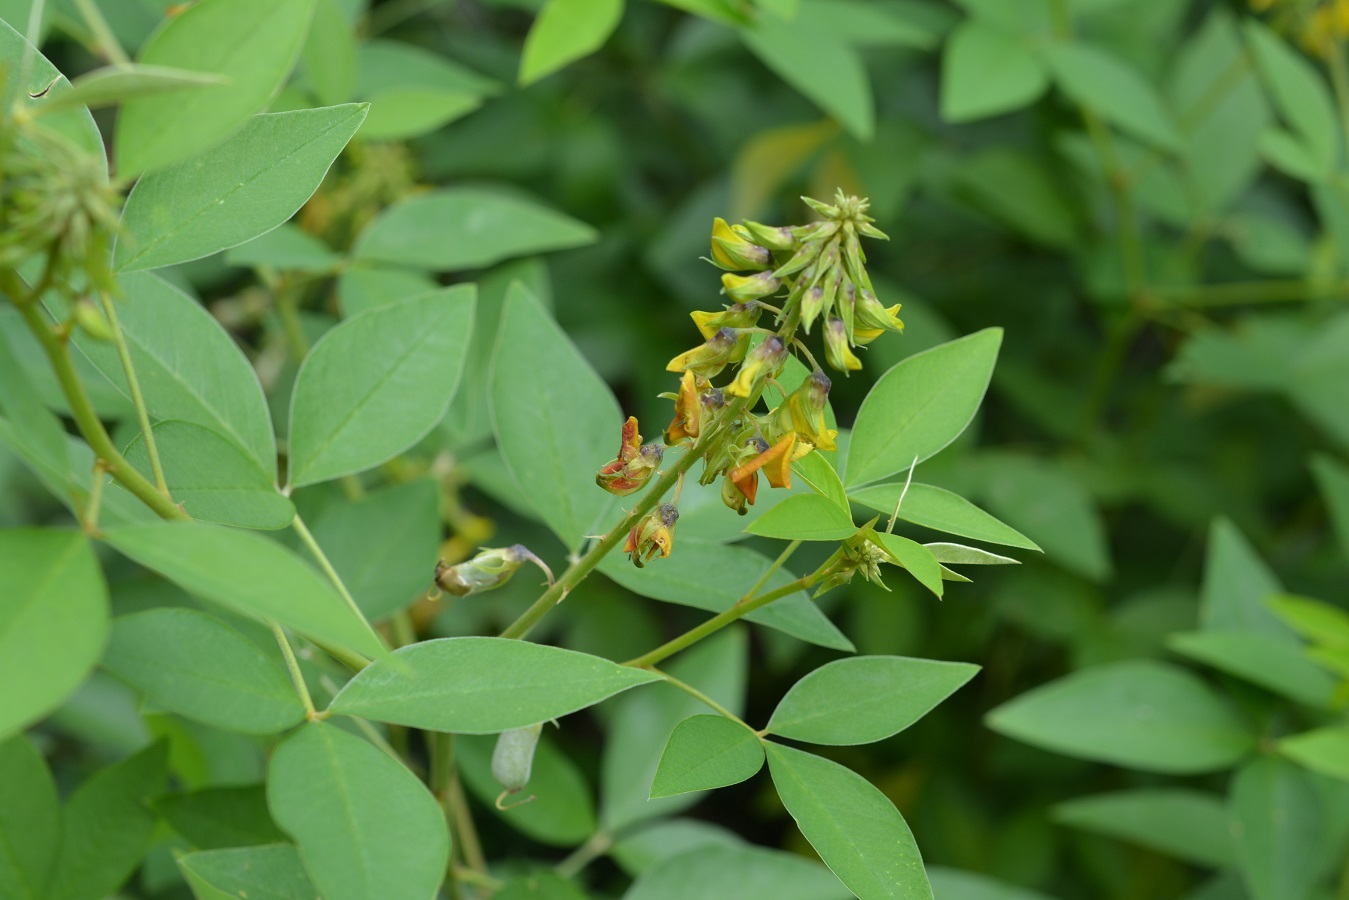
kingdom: Plantae
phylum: Tracheophyta
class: Magnoliopsida
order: Fabales
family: Fabaceae
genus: Crotalaria
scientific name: Crotalaria cajanifolia
